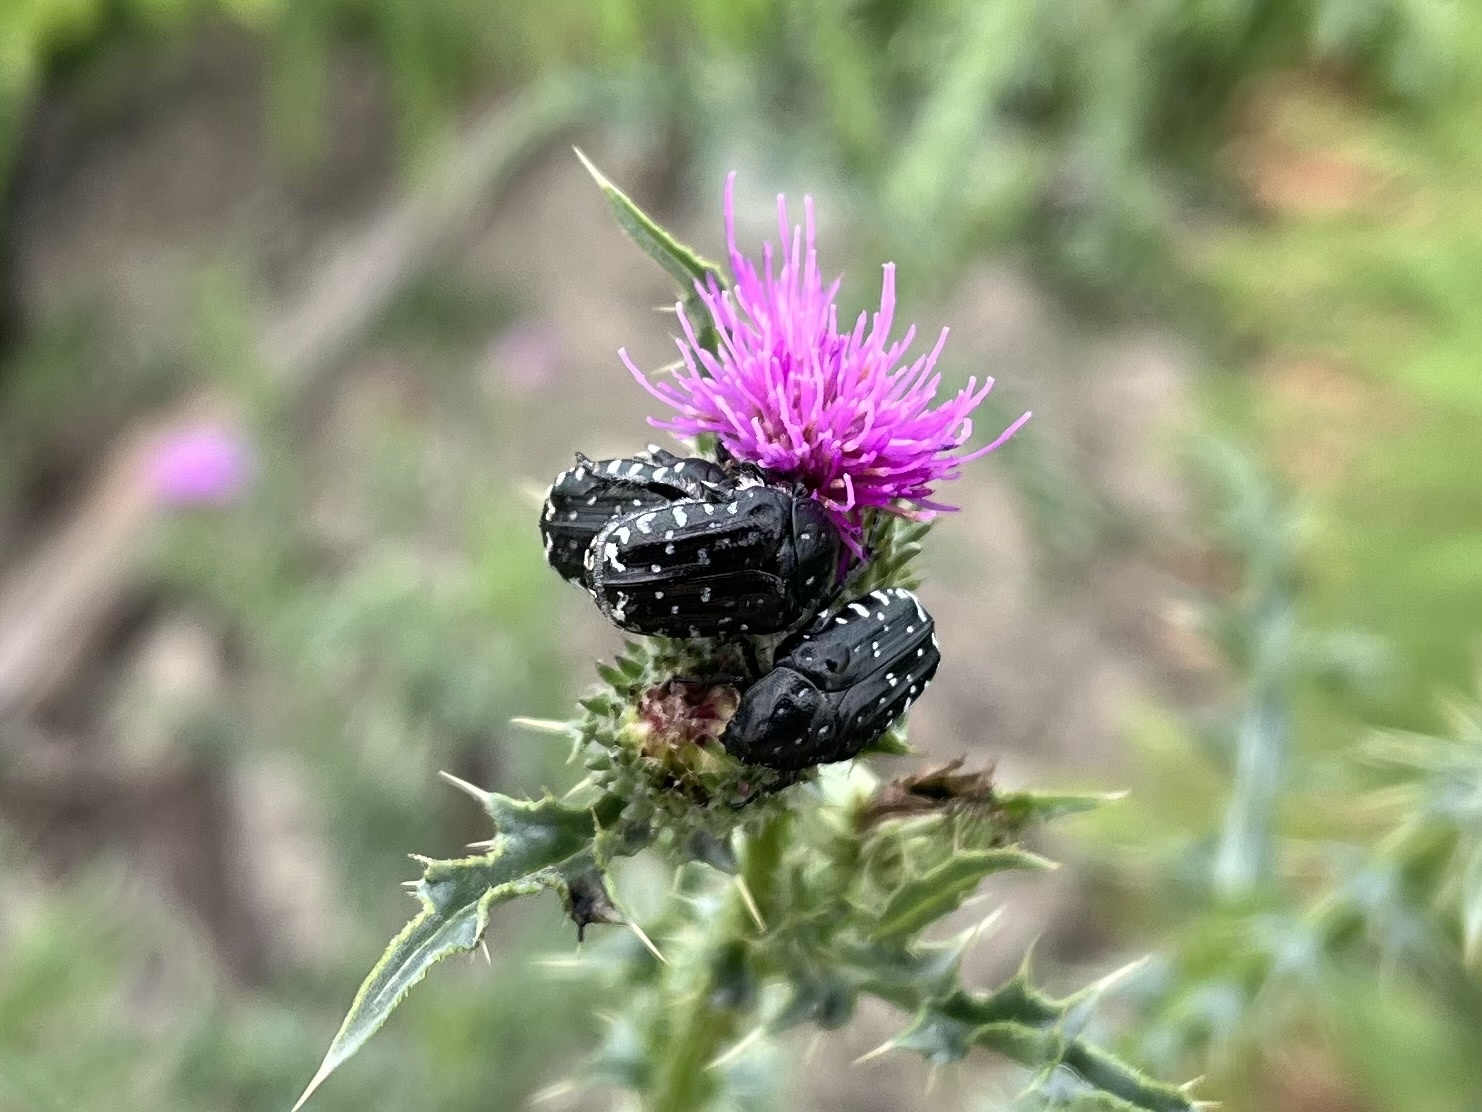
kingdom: Animalia
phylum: Arthropoda
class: Insecta
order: Coleoptera
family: Scarabaeidae
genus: Oxythyrea
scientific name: Oxythyrea funesta
